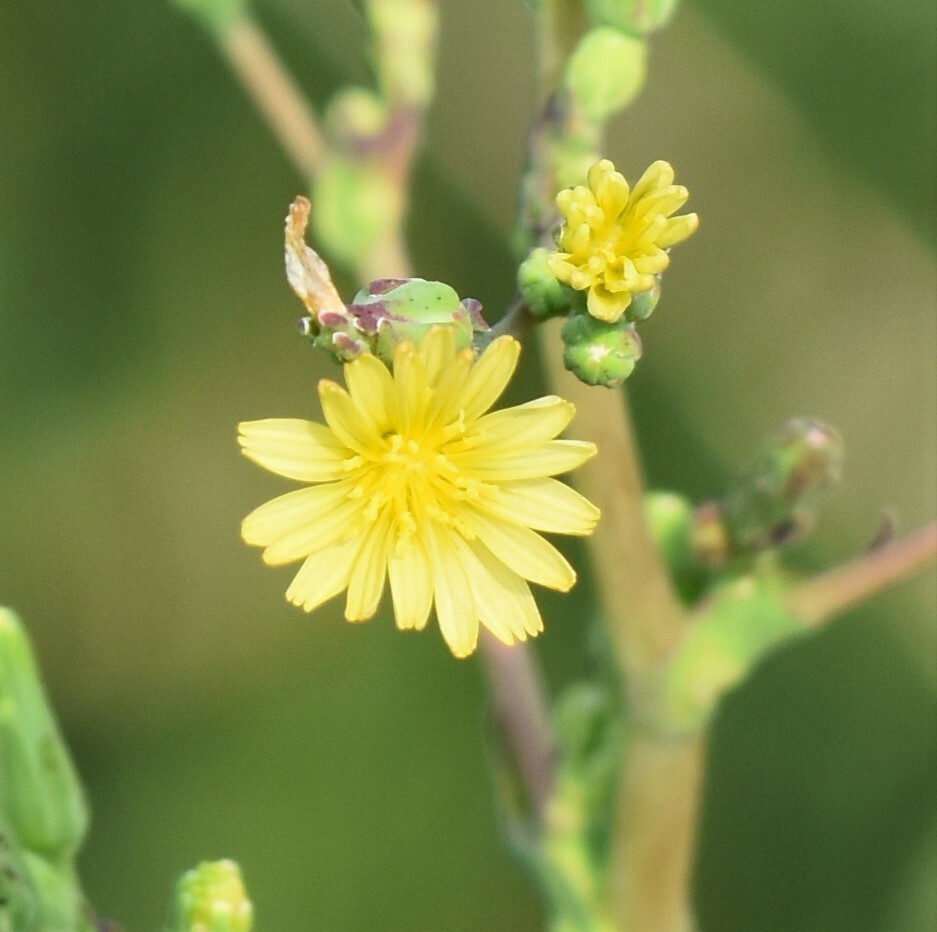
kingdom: Plantae
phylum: Tracheophyta
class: Magnoliopsida
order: Asterales
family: Asteraceae
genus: Lactuca
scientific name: Lactuca serriola
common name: Prickly lettuce
